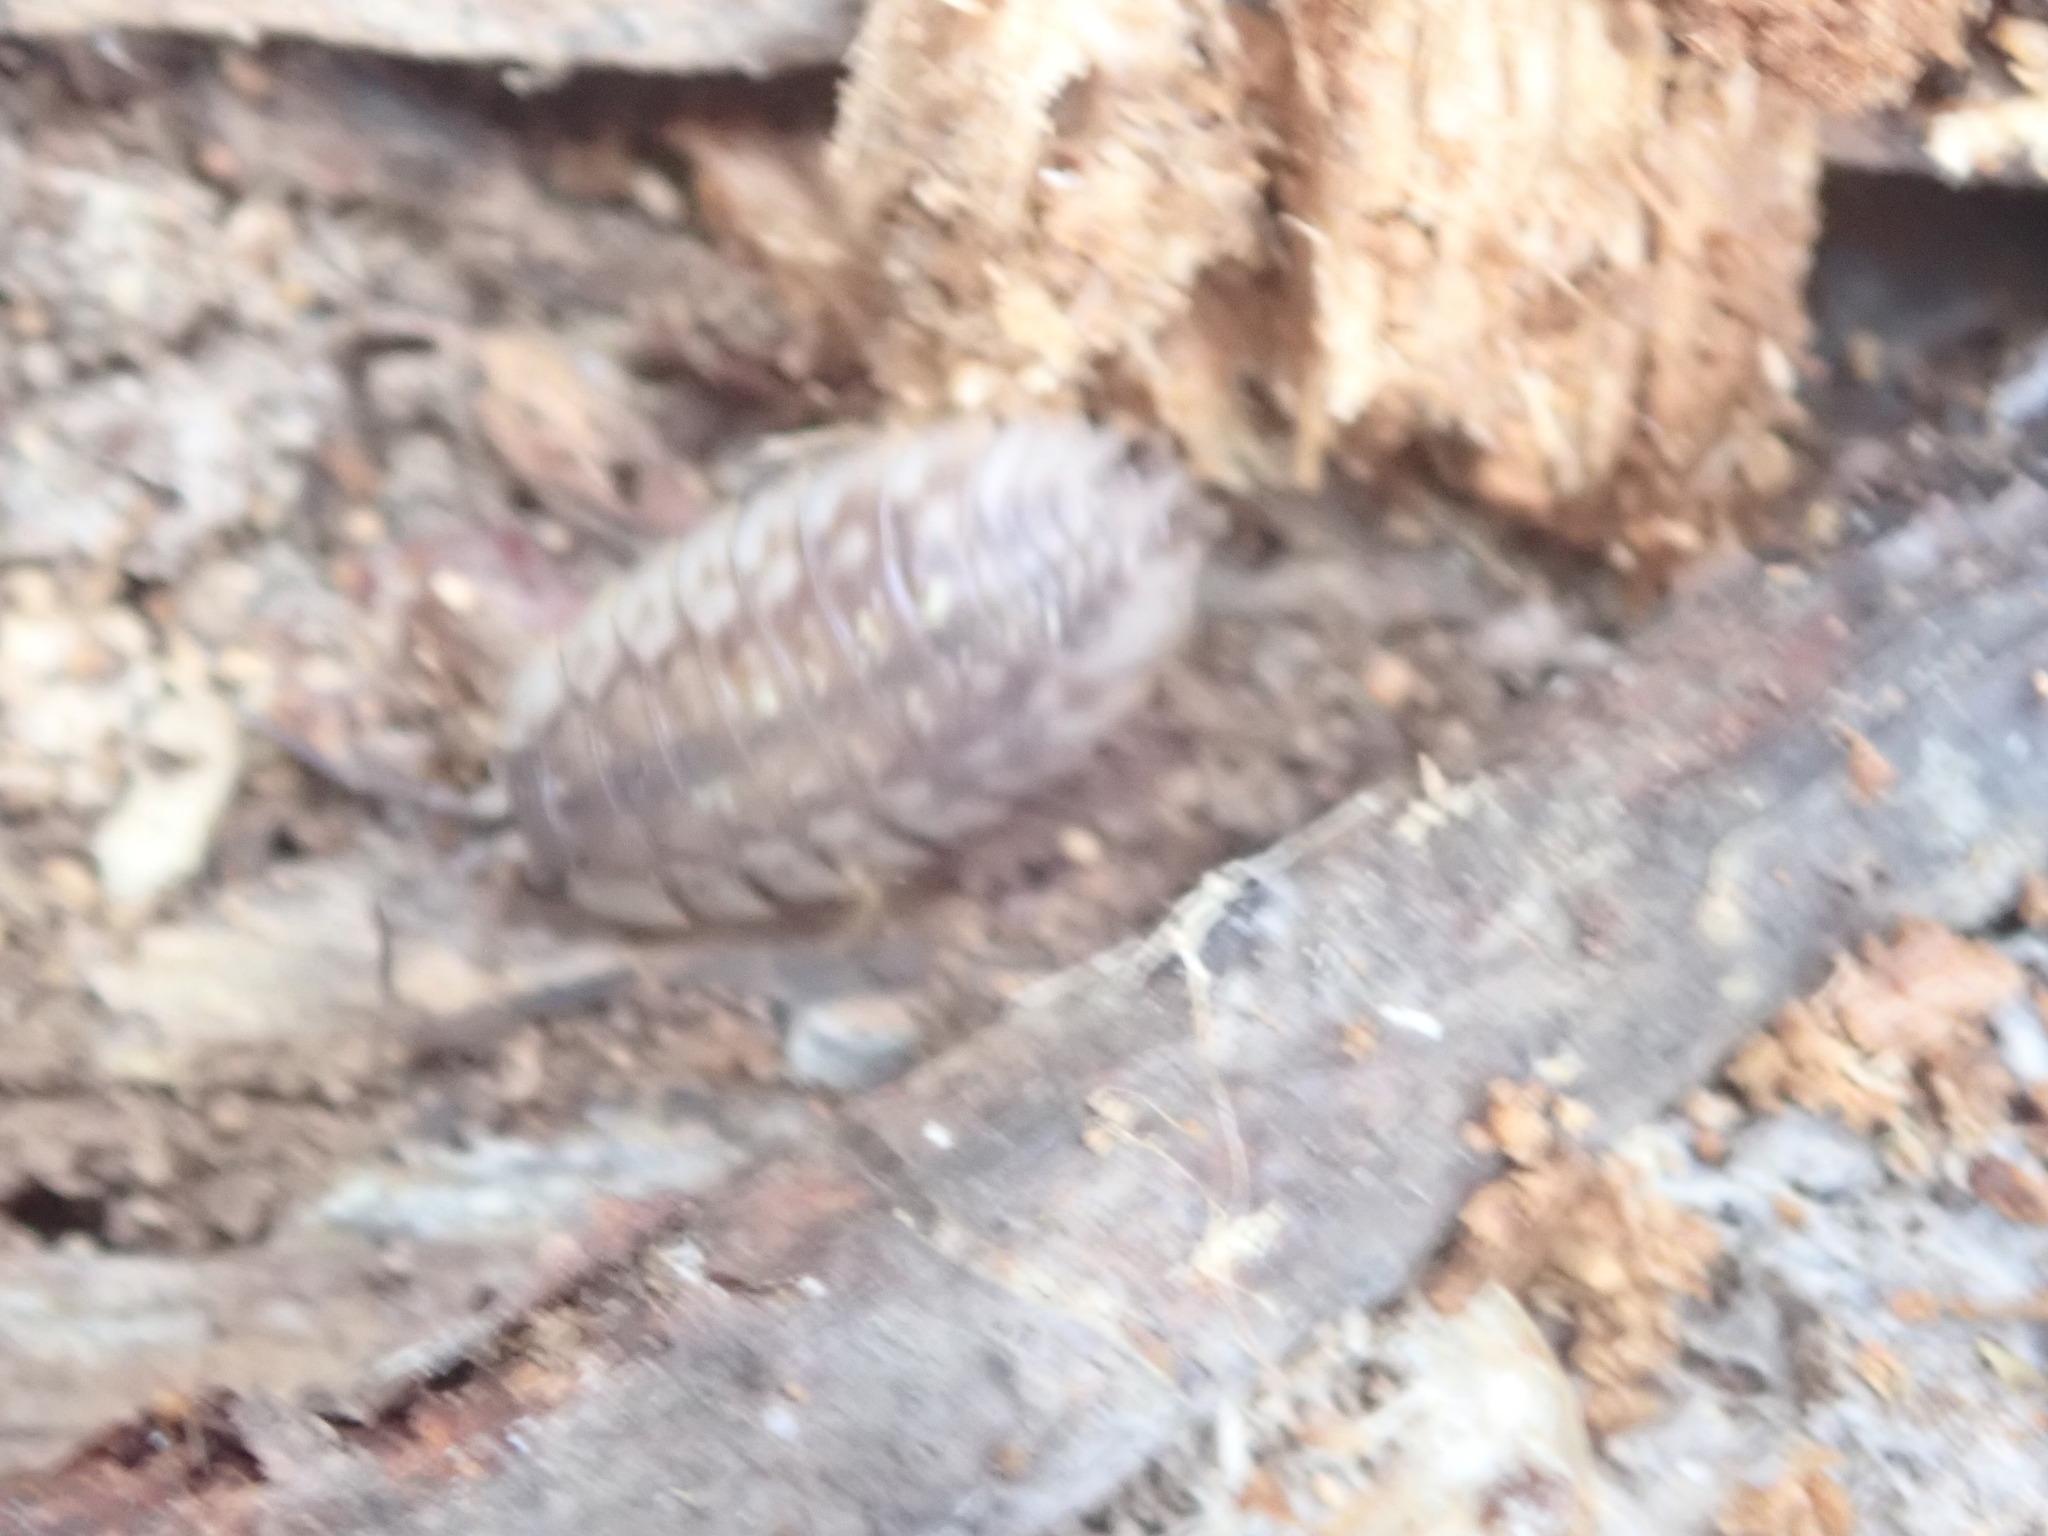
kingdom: Animalia
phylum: Arthropoda
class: Malacostraca
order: Isopoda
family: Oniscidae
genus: Oniscus
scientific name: Oniscus asellus
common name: Common shiny woodlouse
